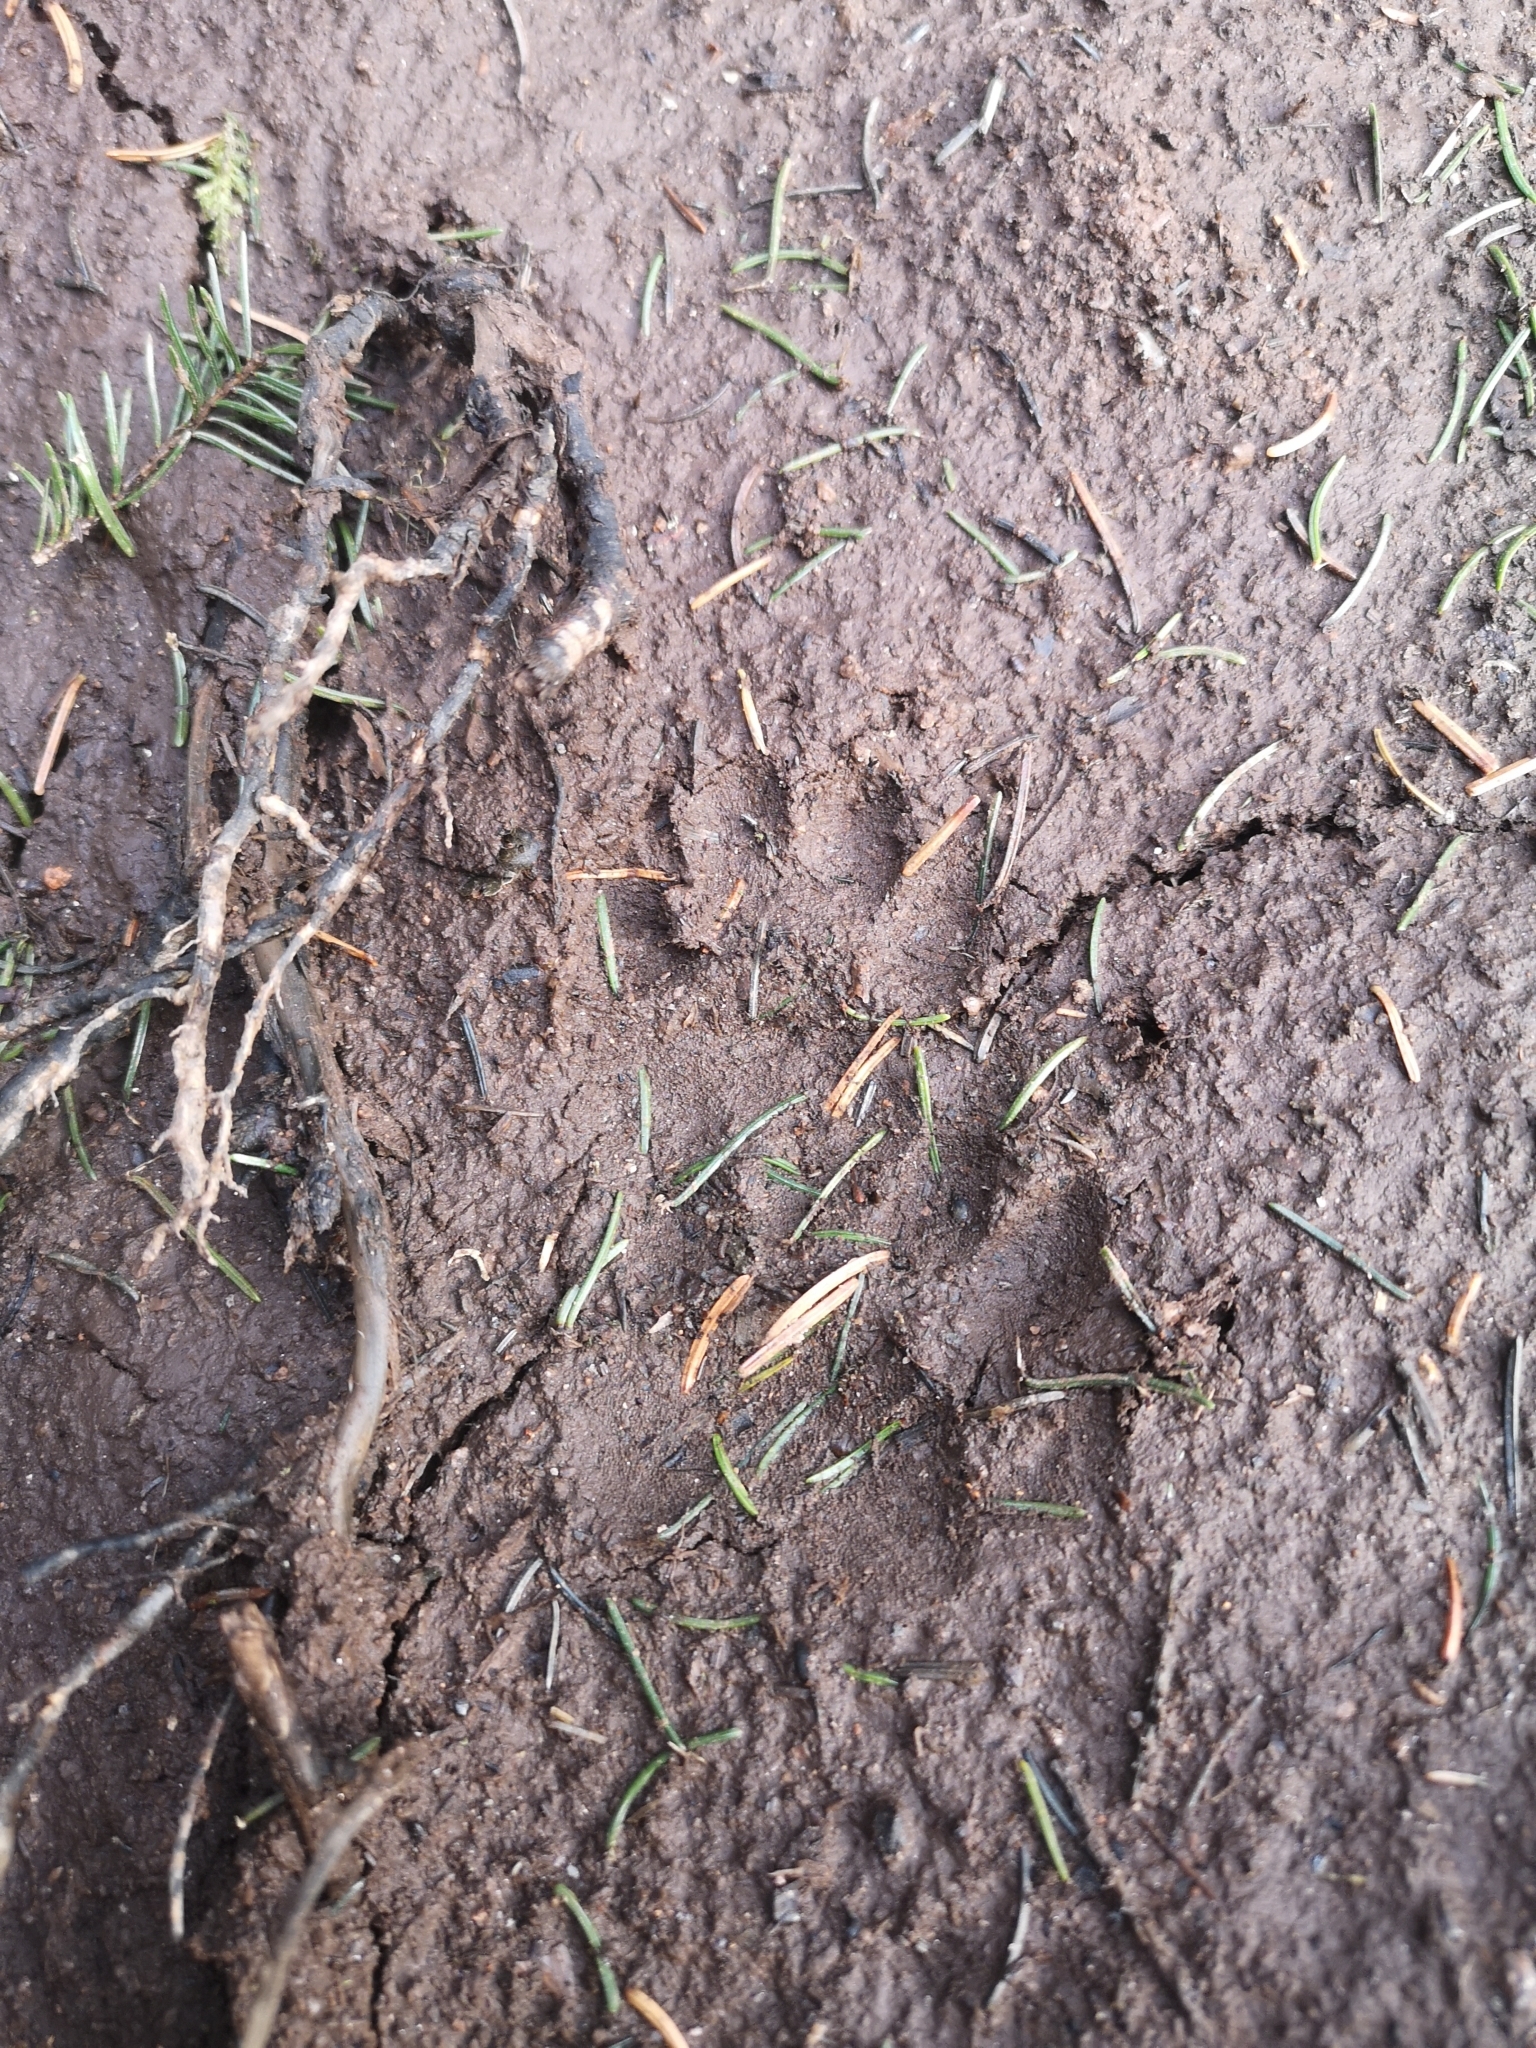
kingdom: Animalia
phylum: Chordata
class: Mammalia
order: Carnivora
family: Mustelidae
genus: Meles
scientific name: Meles meles
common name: Eurasian badger
